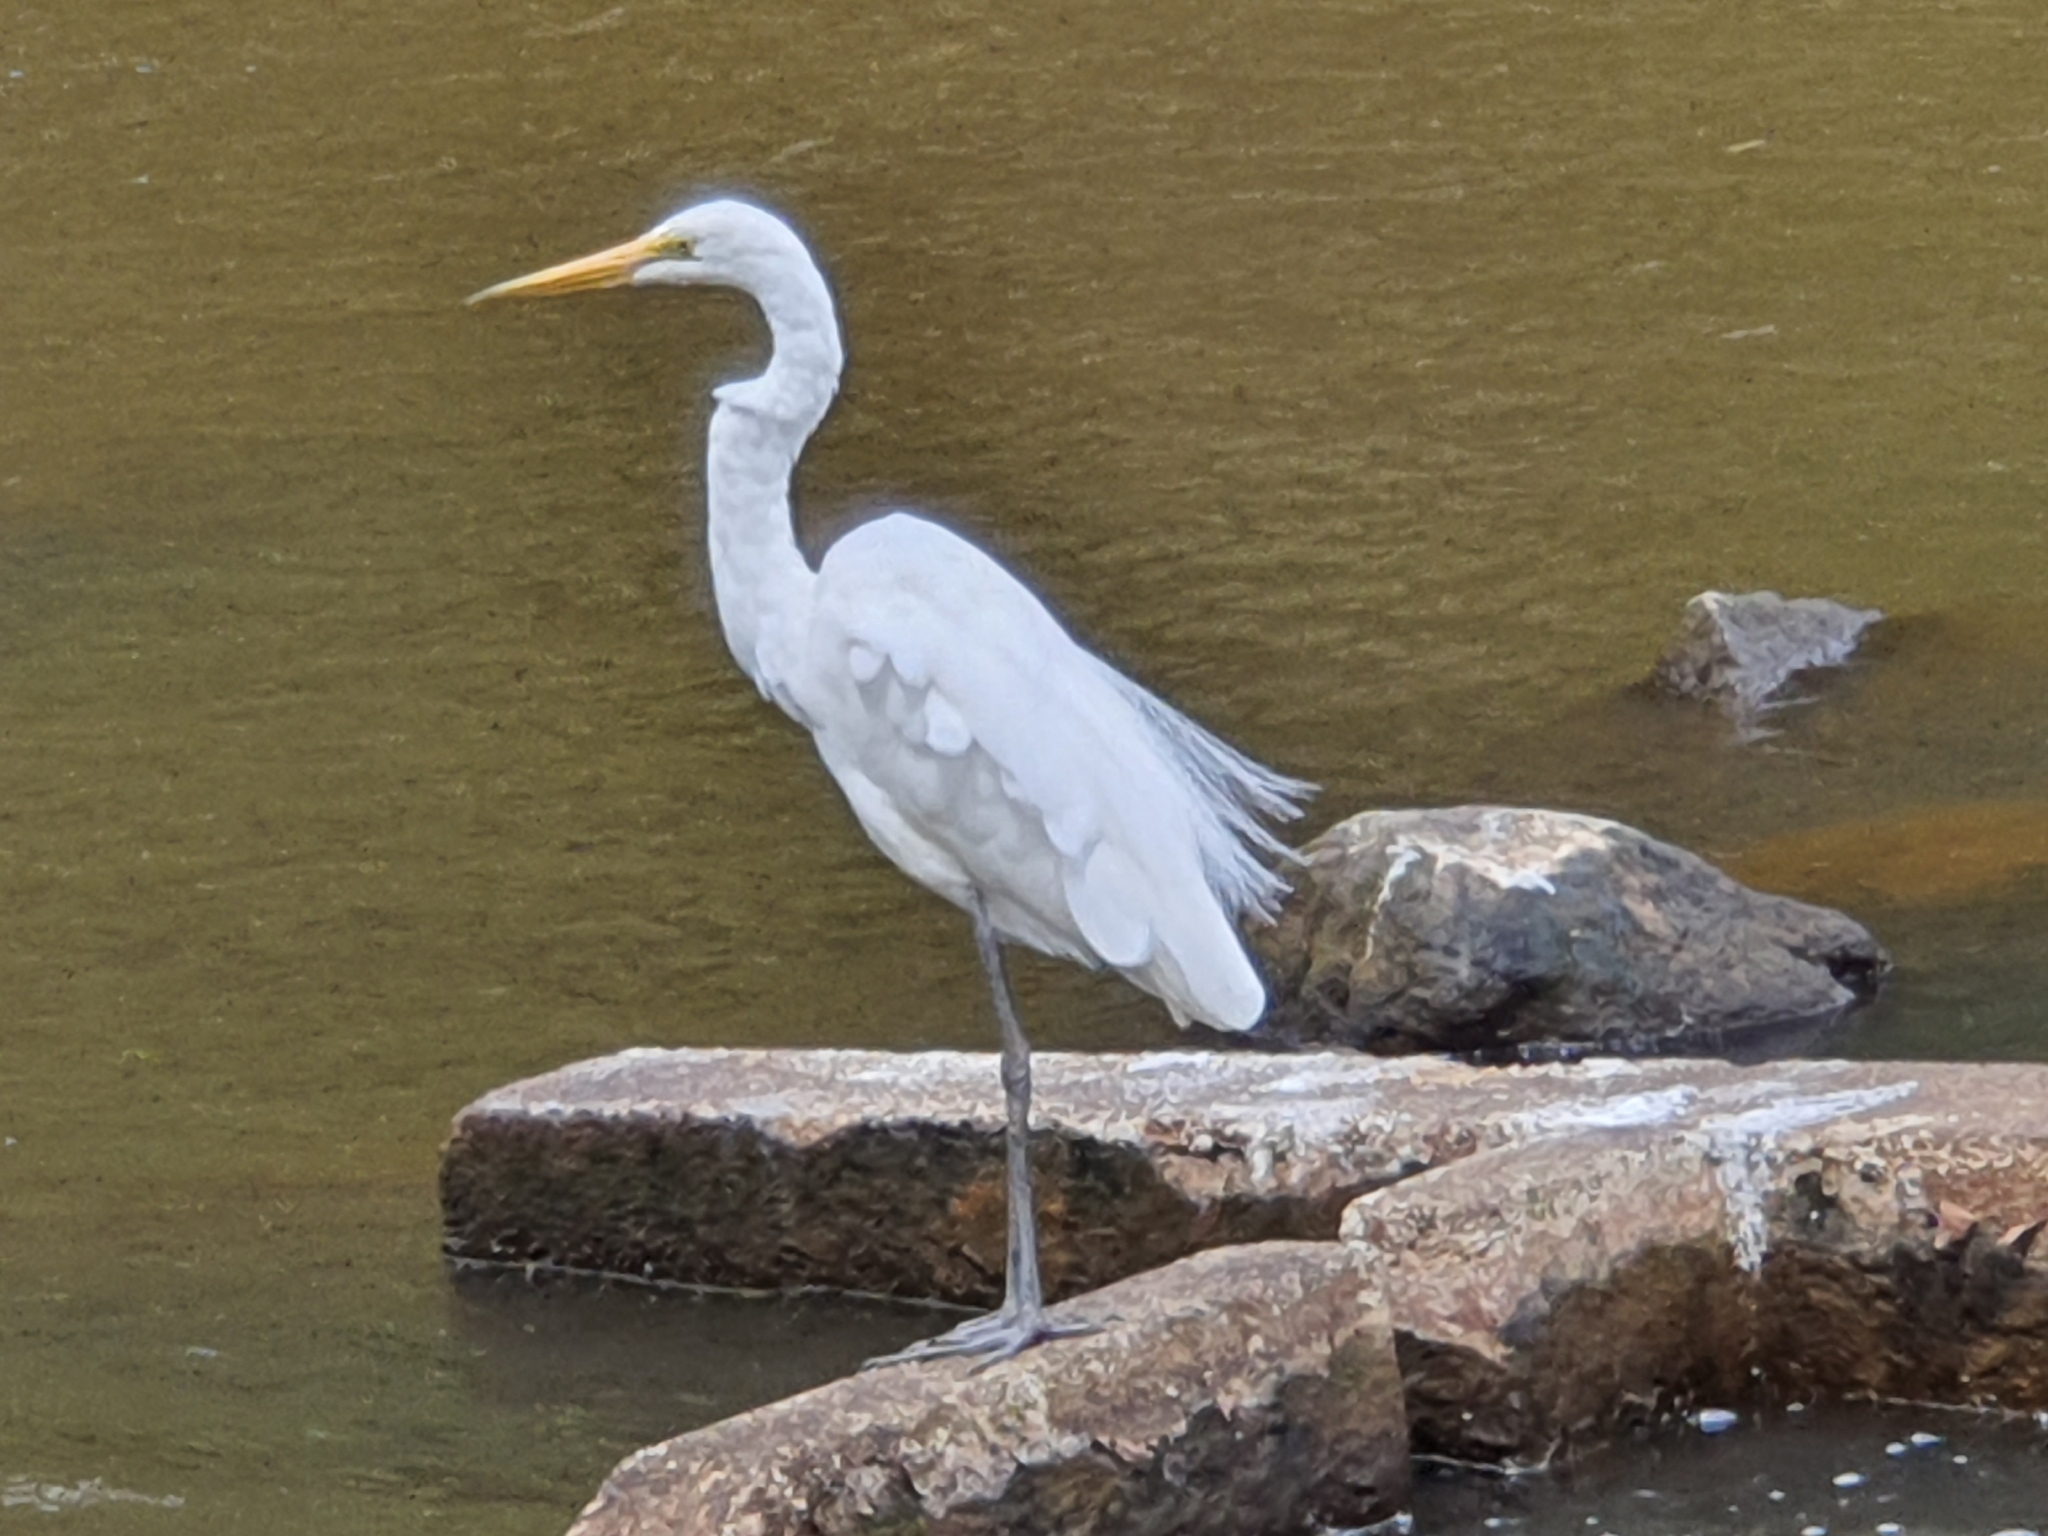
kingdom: Animalia
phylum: Chordata
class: Aves
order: Pelecaniformes
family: Ardeidae
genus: Ardea
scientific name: Ardea alba
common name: Great egret
